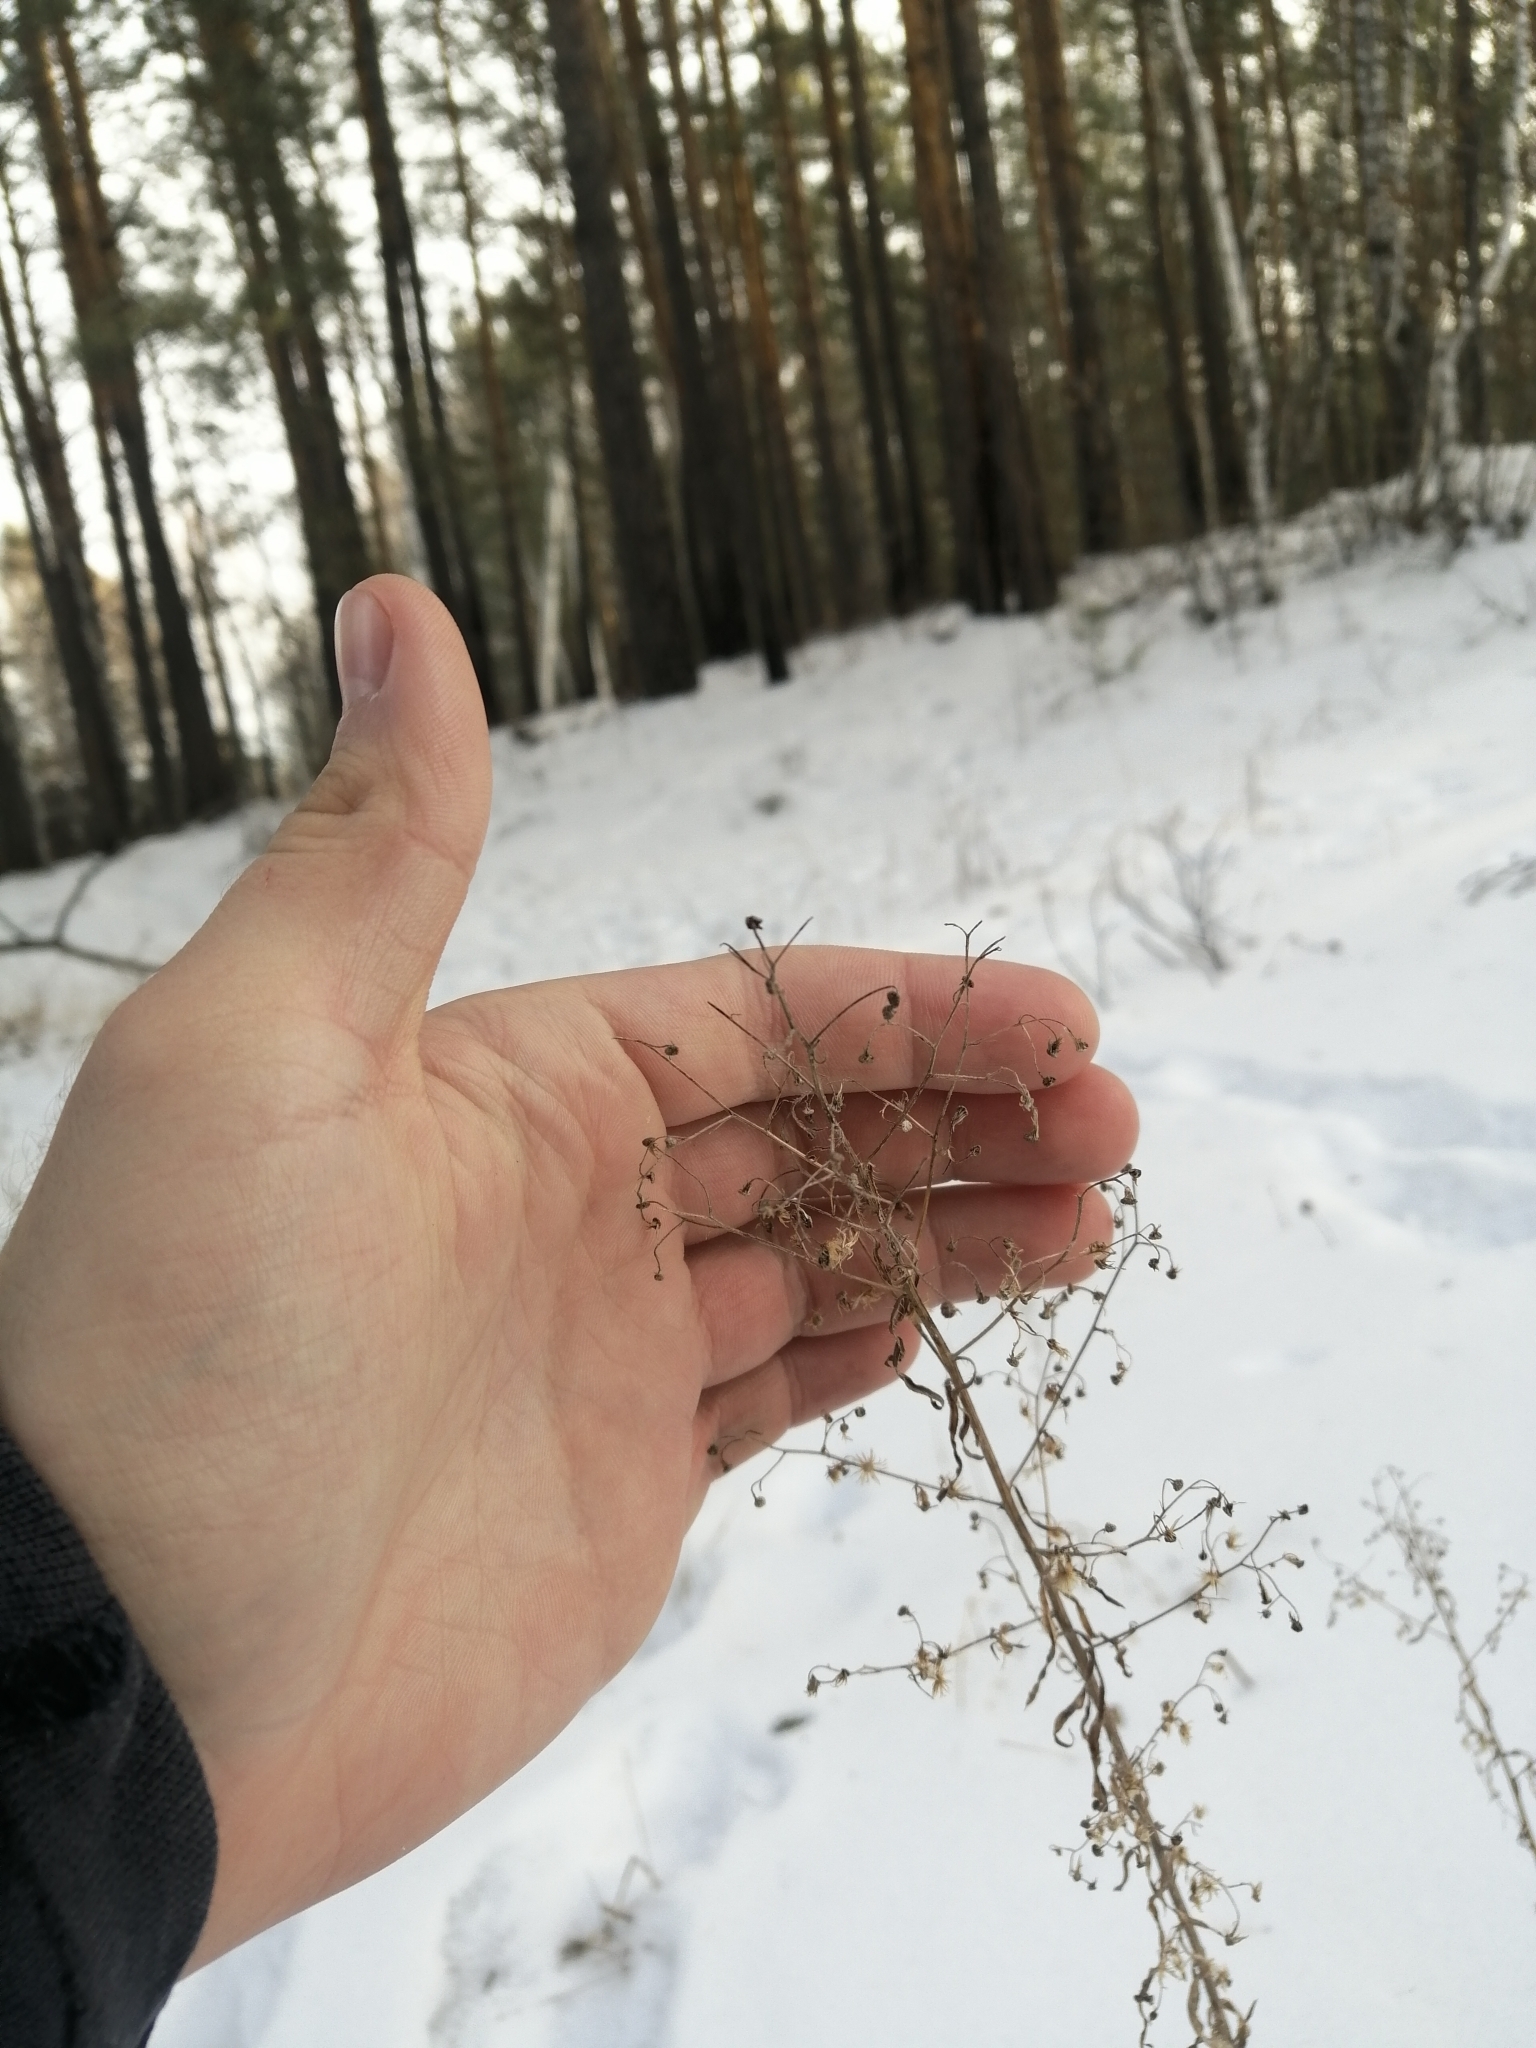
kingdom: Plantae
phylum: Tracheophyta
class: Magnoliopsida
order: Asterales
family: Asteraceae
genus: Erigeron
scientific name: Erigeron canadensis
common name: Canadian fleabane
